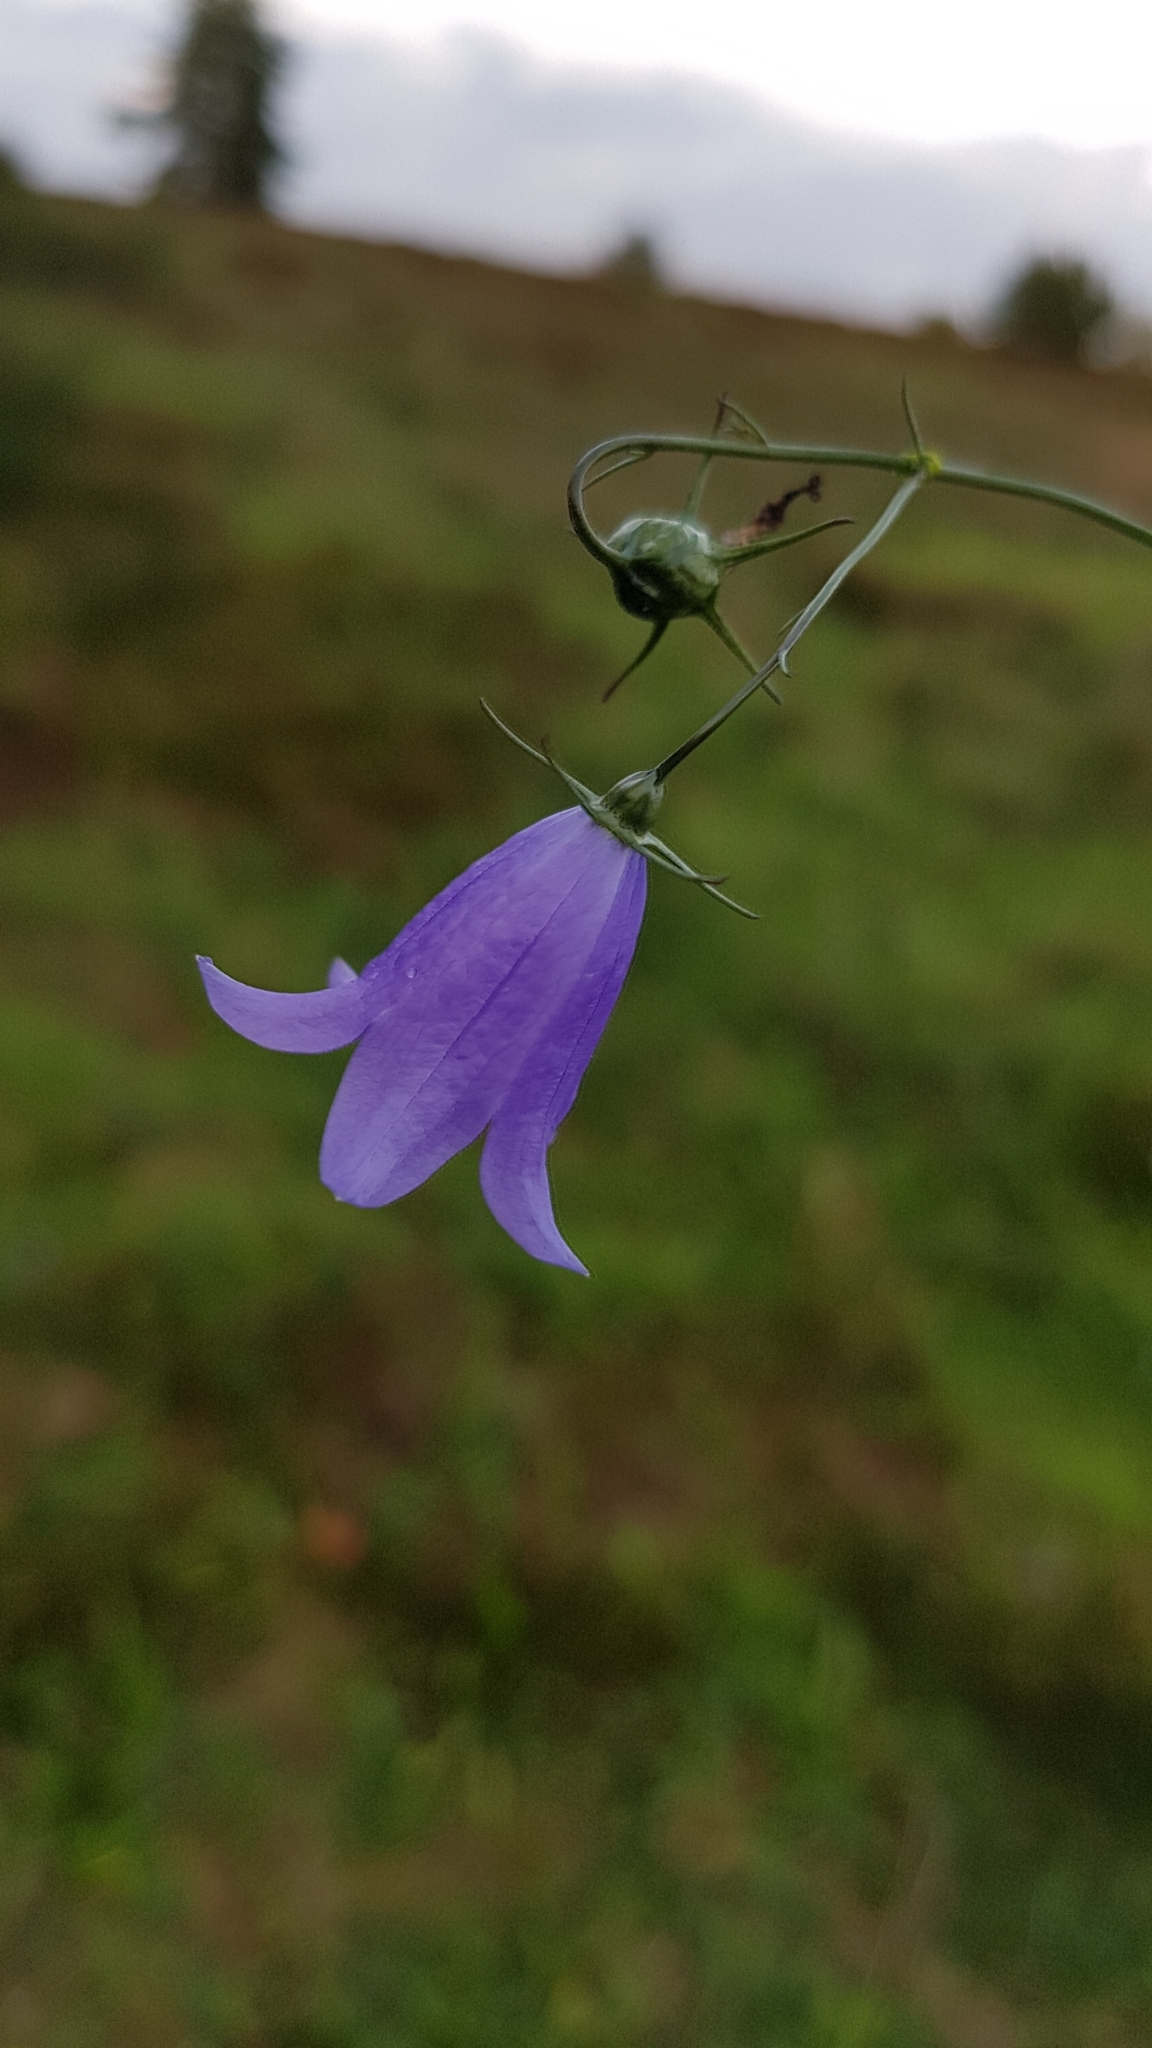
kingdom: Plantae
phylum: Tracheophyta
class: Magnoliopsida
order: Asterales
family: Campanulaceae
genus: Campanula
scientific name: Campanula rotundifolia
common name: Harebell
